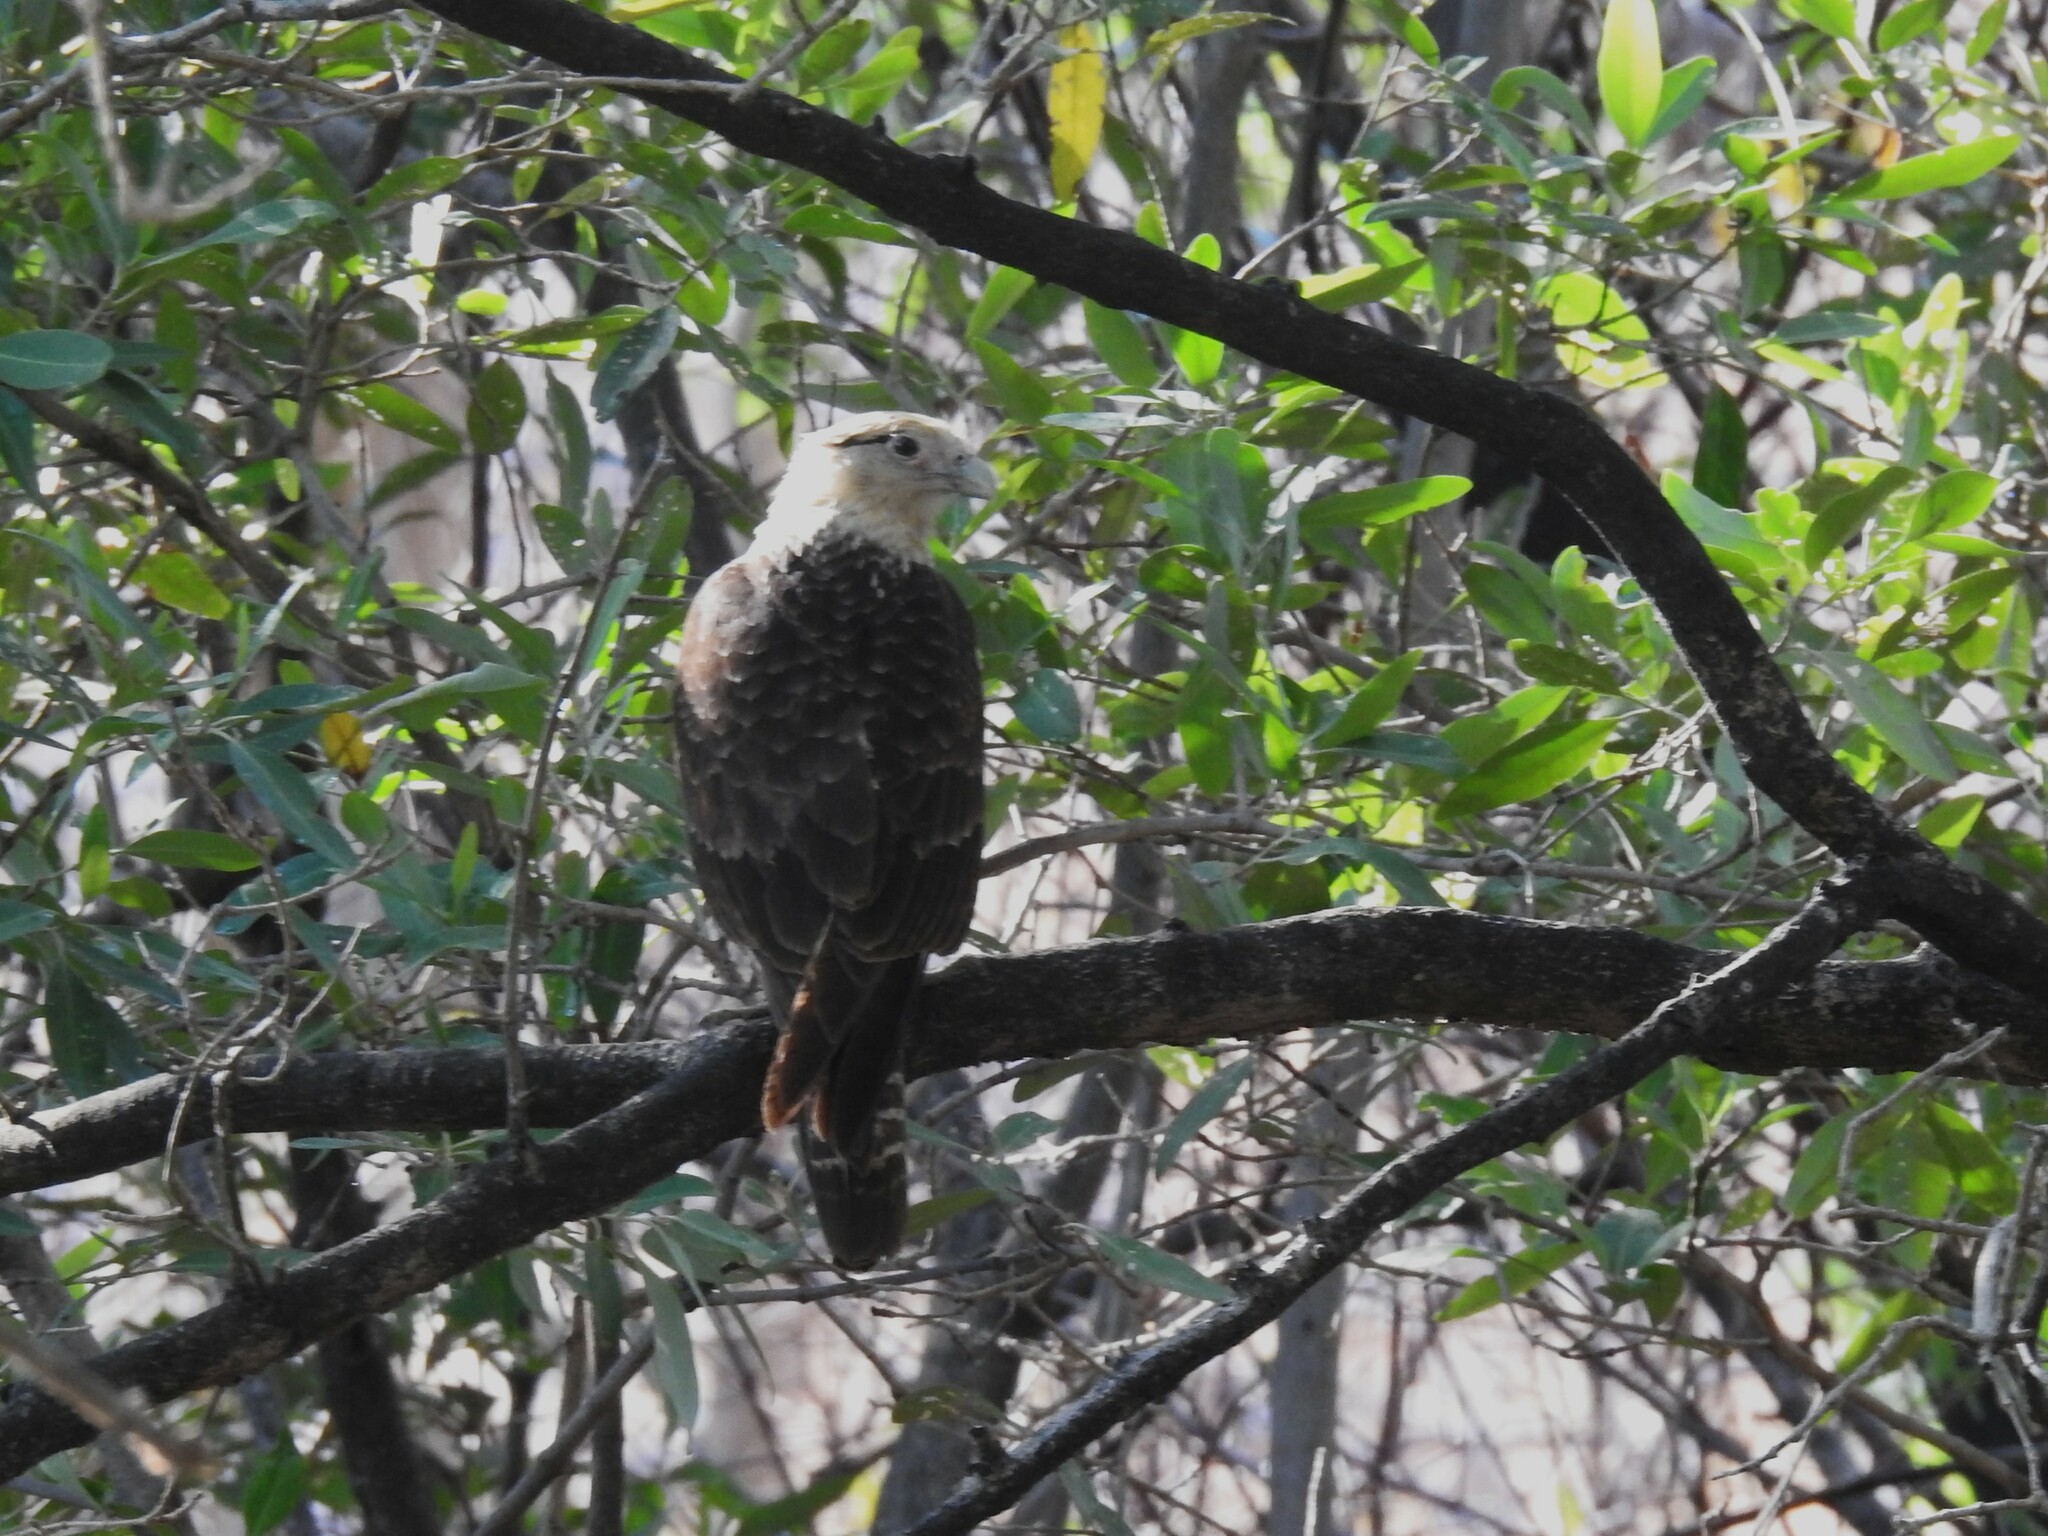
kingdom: Animalia
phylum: Chordata
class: Aves
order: Falconiformes
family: Falconidae
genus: Daptrius
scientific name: Daptrius
